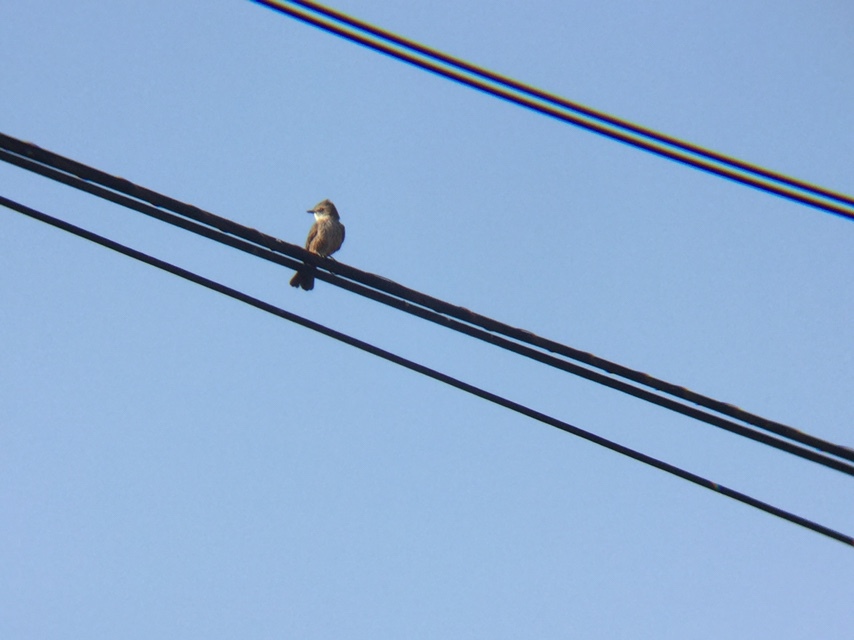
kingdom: Animalia
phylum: Chordata
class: Aves
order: Passeriformes
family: Tyrannidae
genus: Pyrocephalus
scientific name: Pyrocephalus rubinus
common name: Vermilion flycatcher
